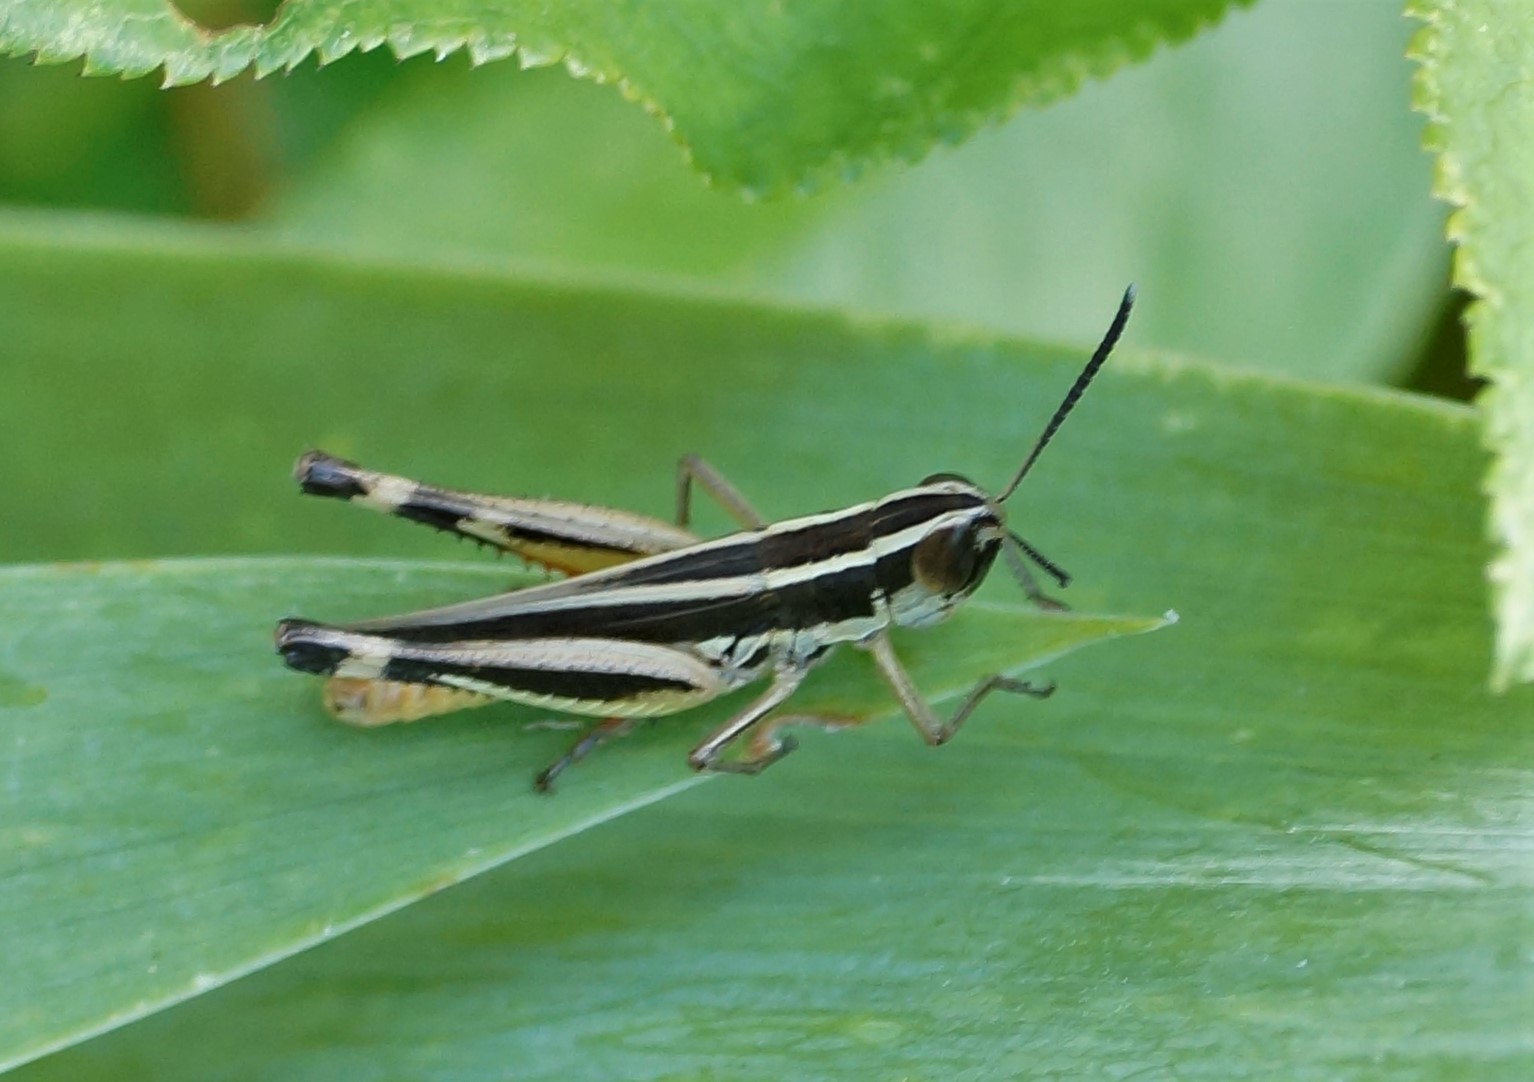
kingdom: Animalia
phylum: Arthropoda
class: Insecta
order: Orthoptera
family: Acrididae
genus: Macrotona
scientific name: Macrotona australis
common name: Common macrotona
